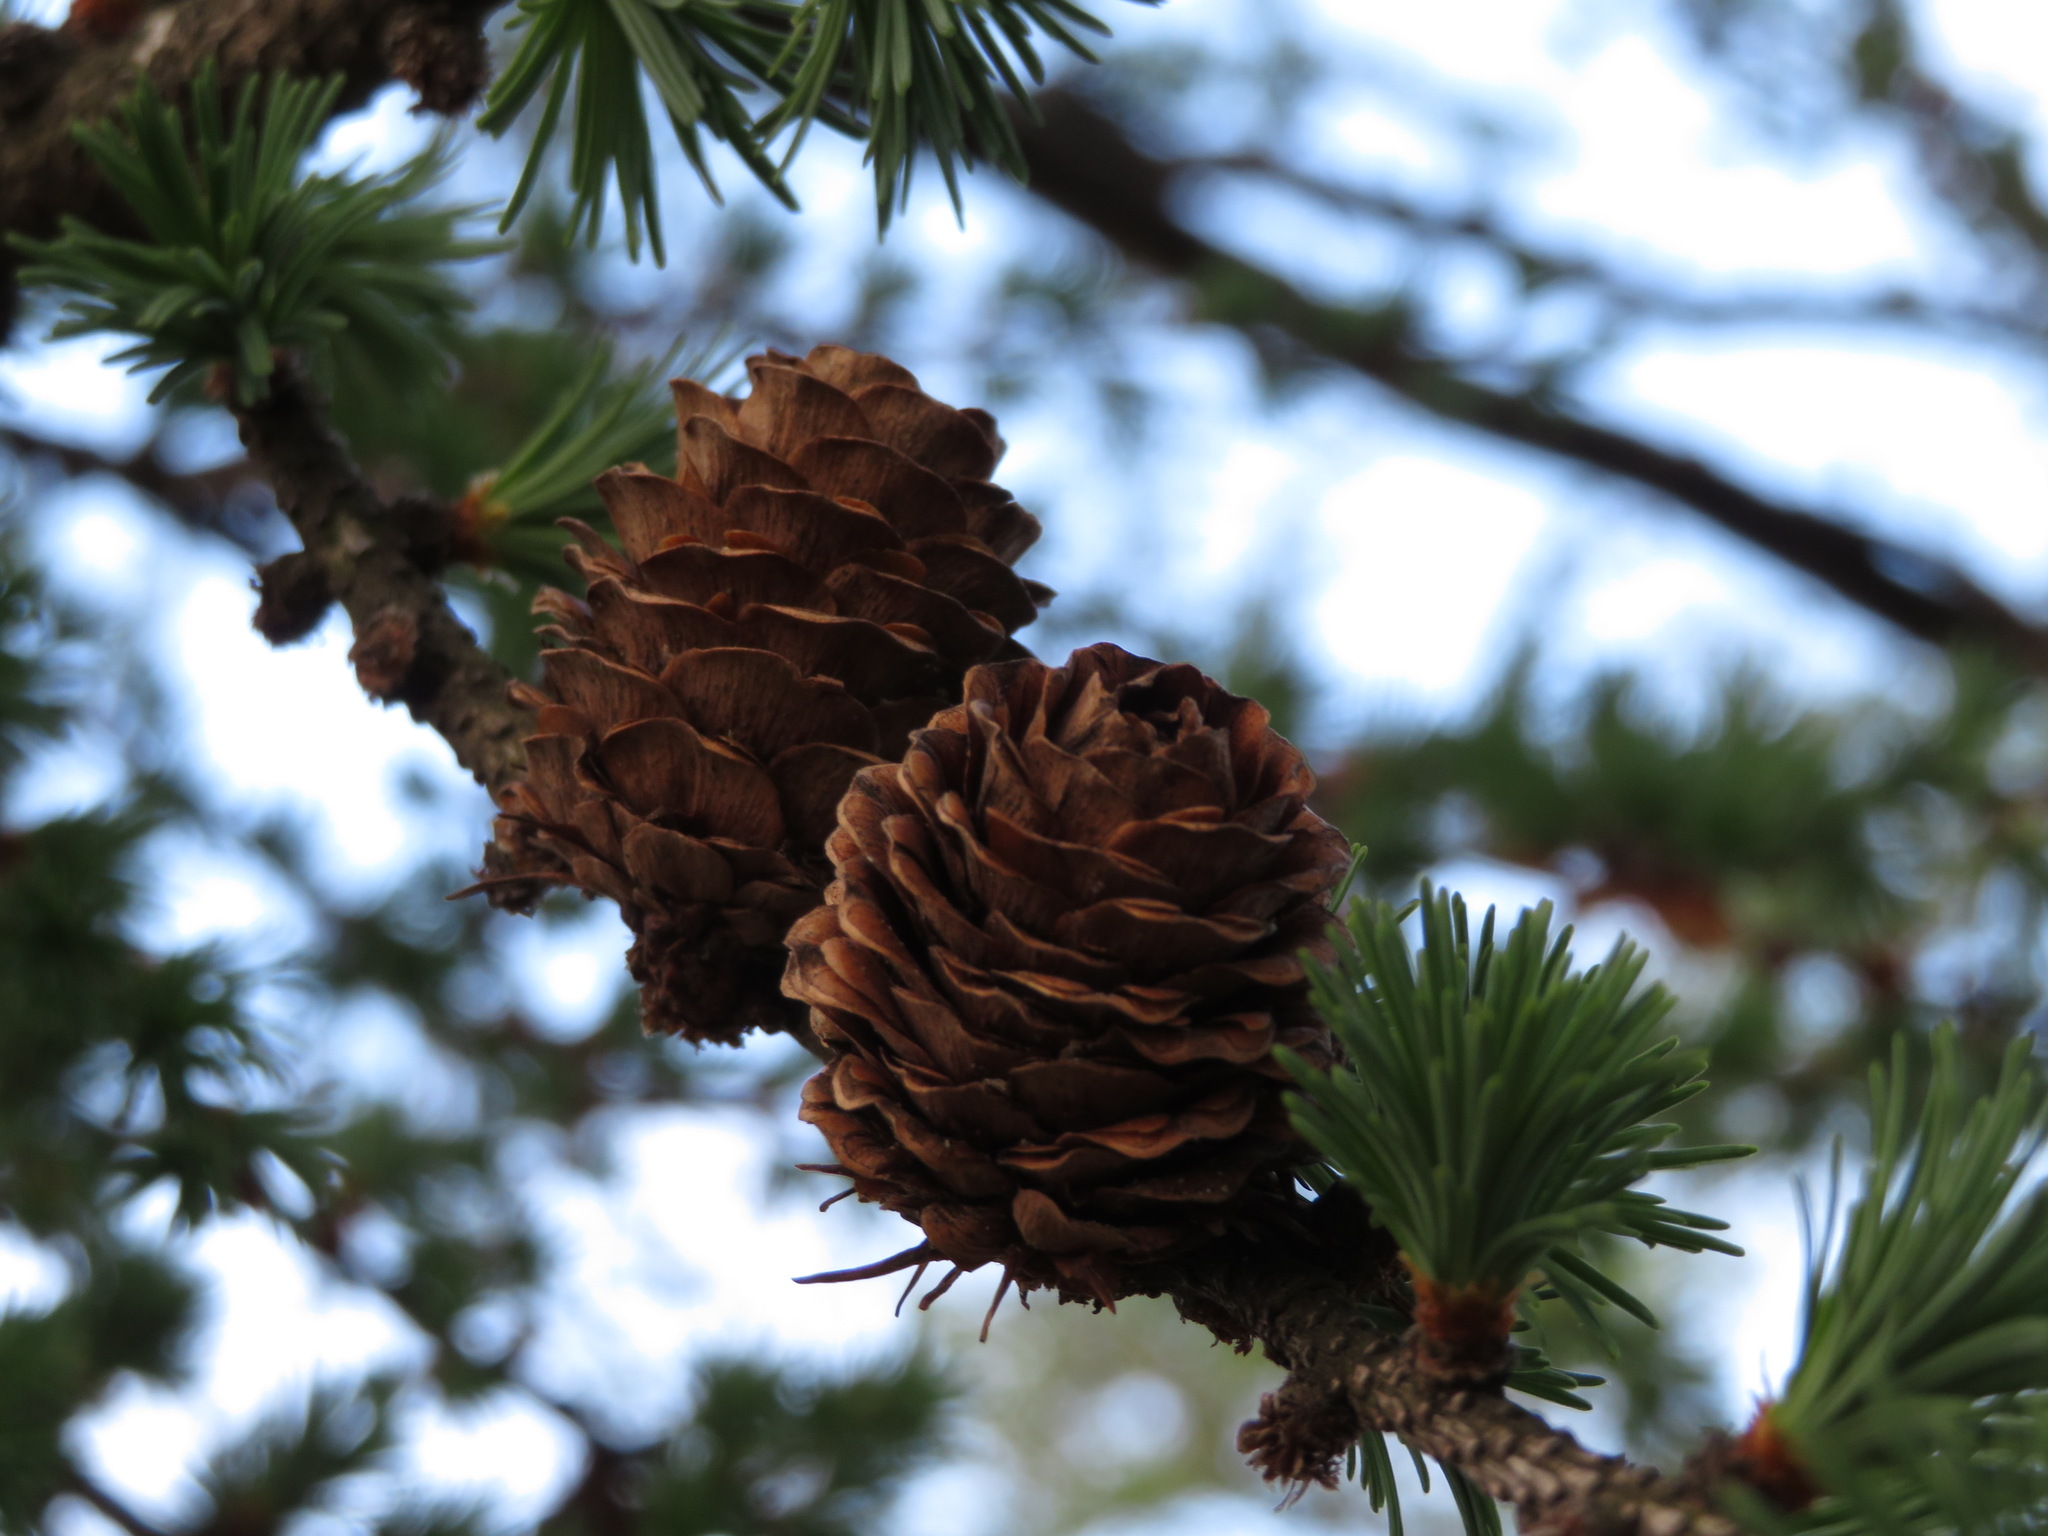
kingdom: Plantae
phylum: Tracheophyta
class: Pinopsida
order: Pinales
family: Pinaceae
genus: Larix
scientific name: Larix kaempferi
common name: Japanese larch
